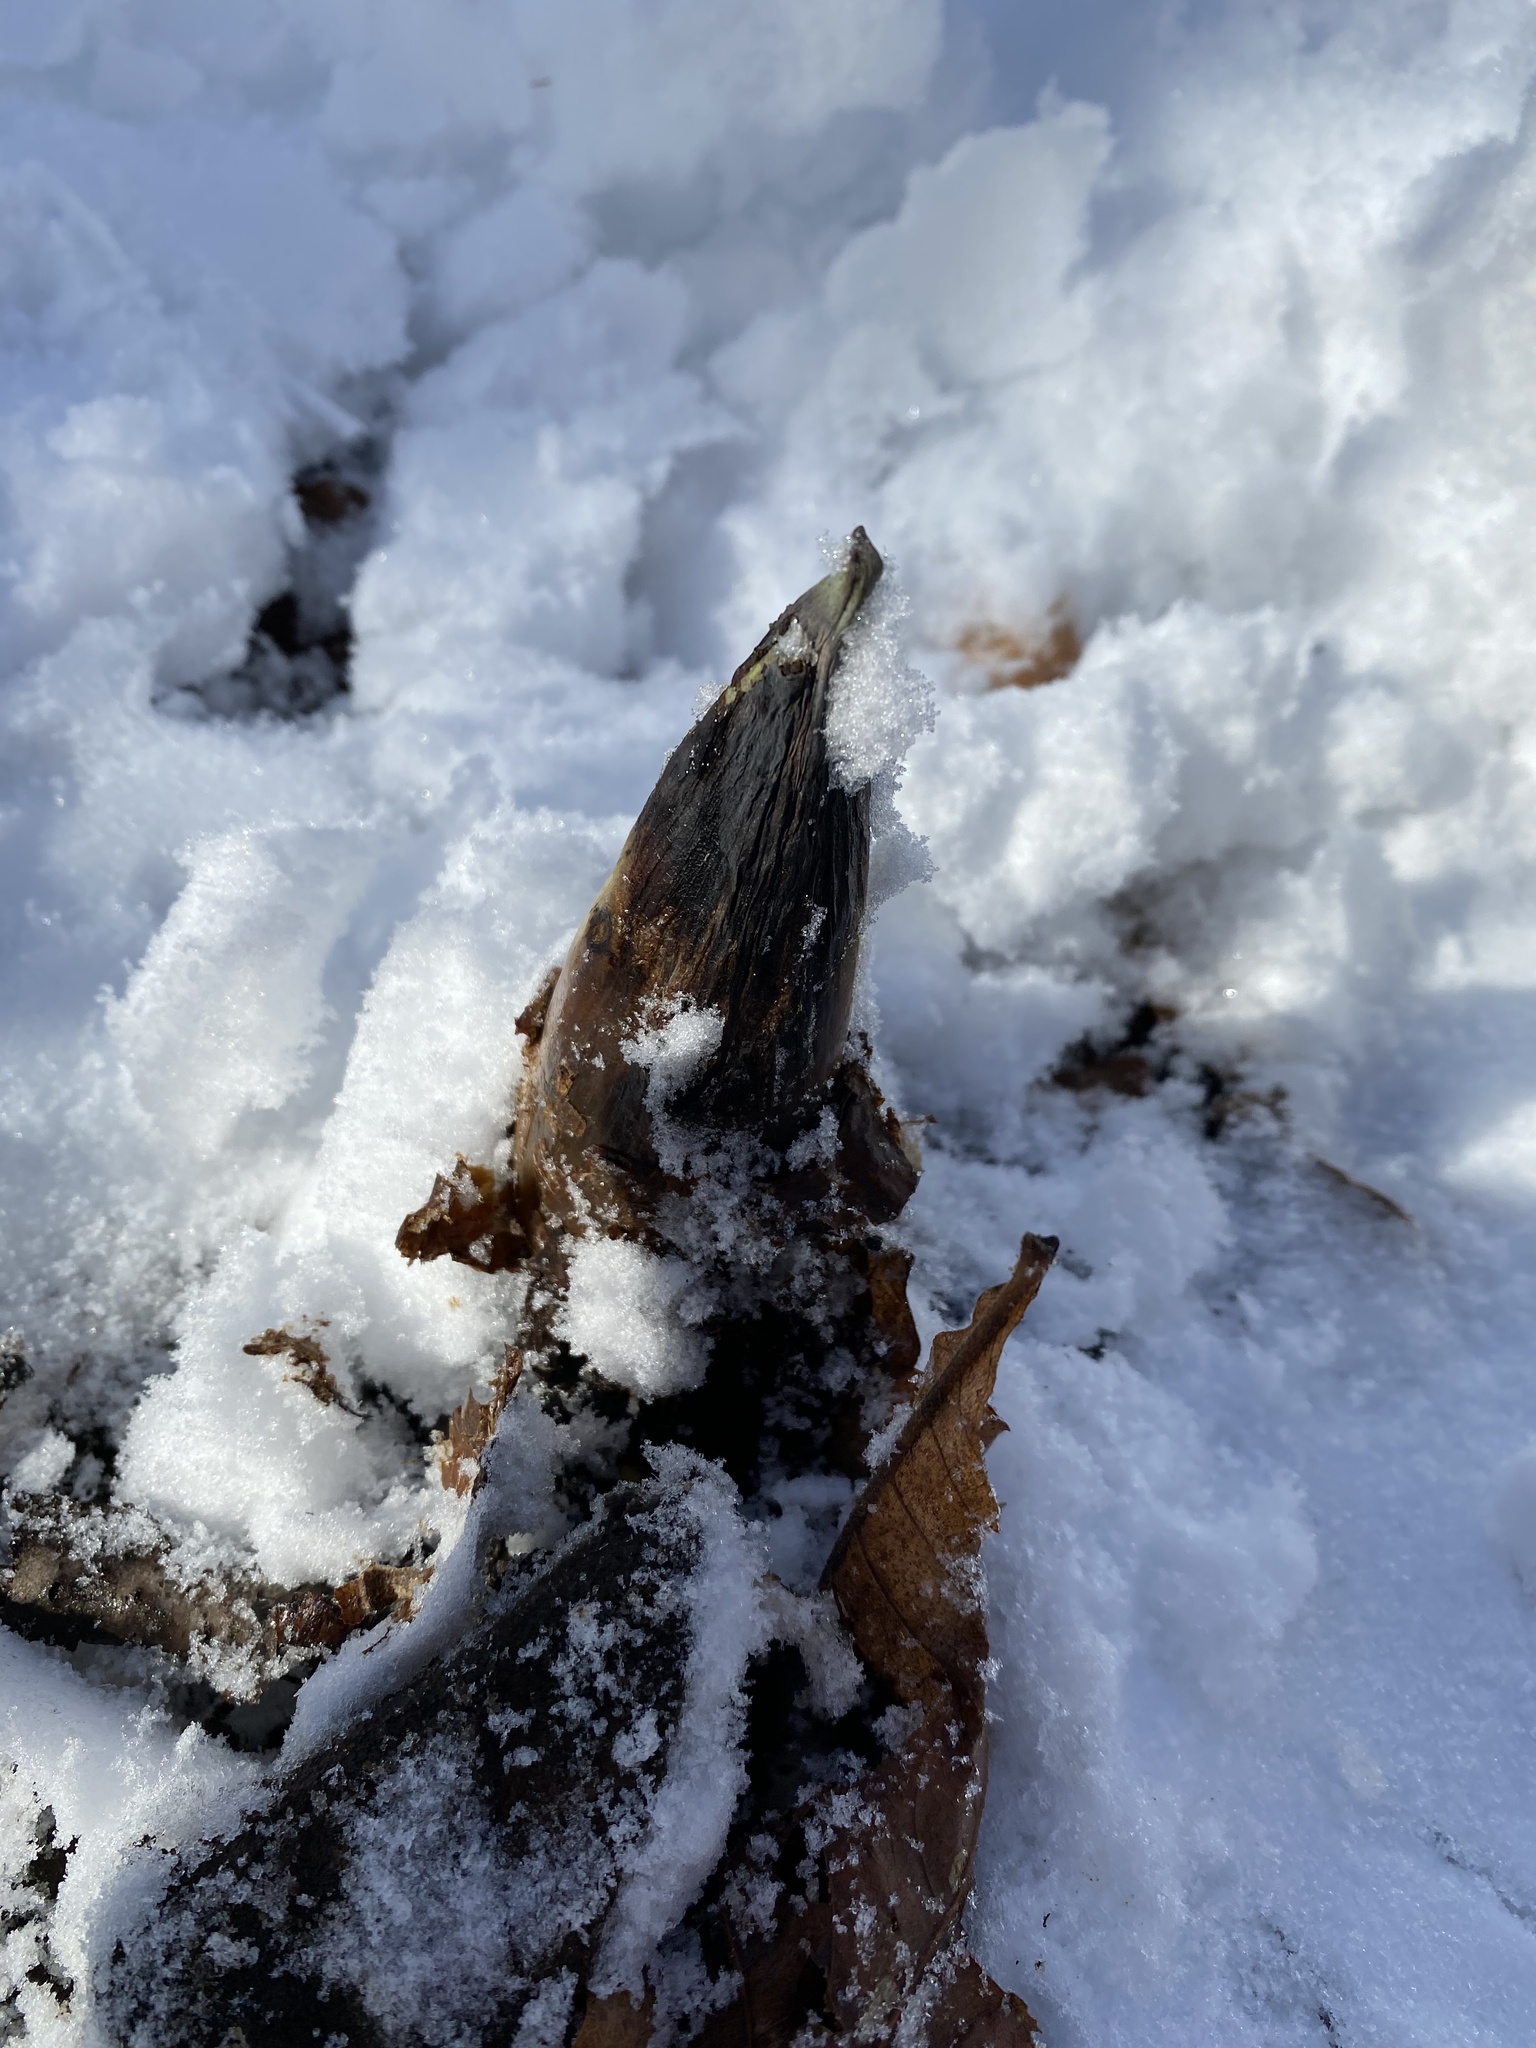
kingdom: Plantae
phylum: Tracheophyta
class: Liliopsida
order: Alismatales
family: Araceae
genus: Symplocarpus
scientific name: Symplocarpus foetidus
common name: Eastern skunk cabbage
